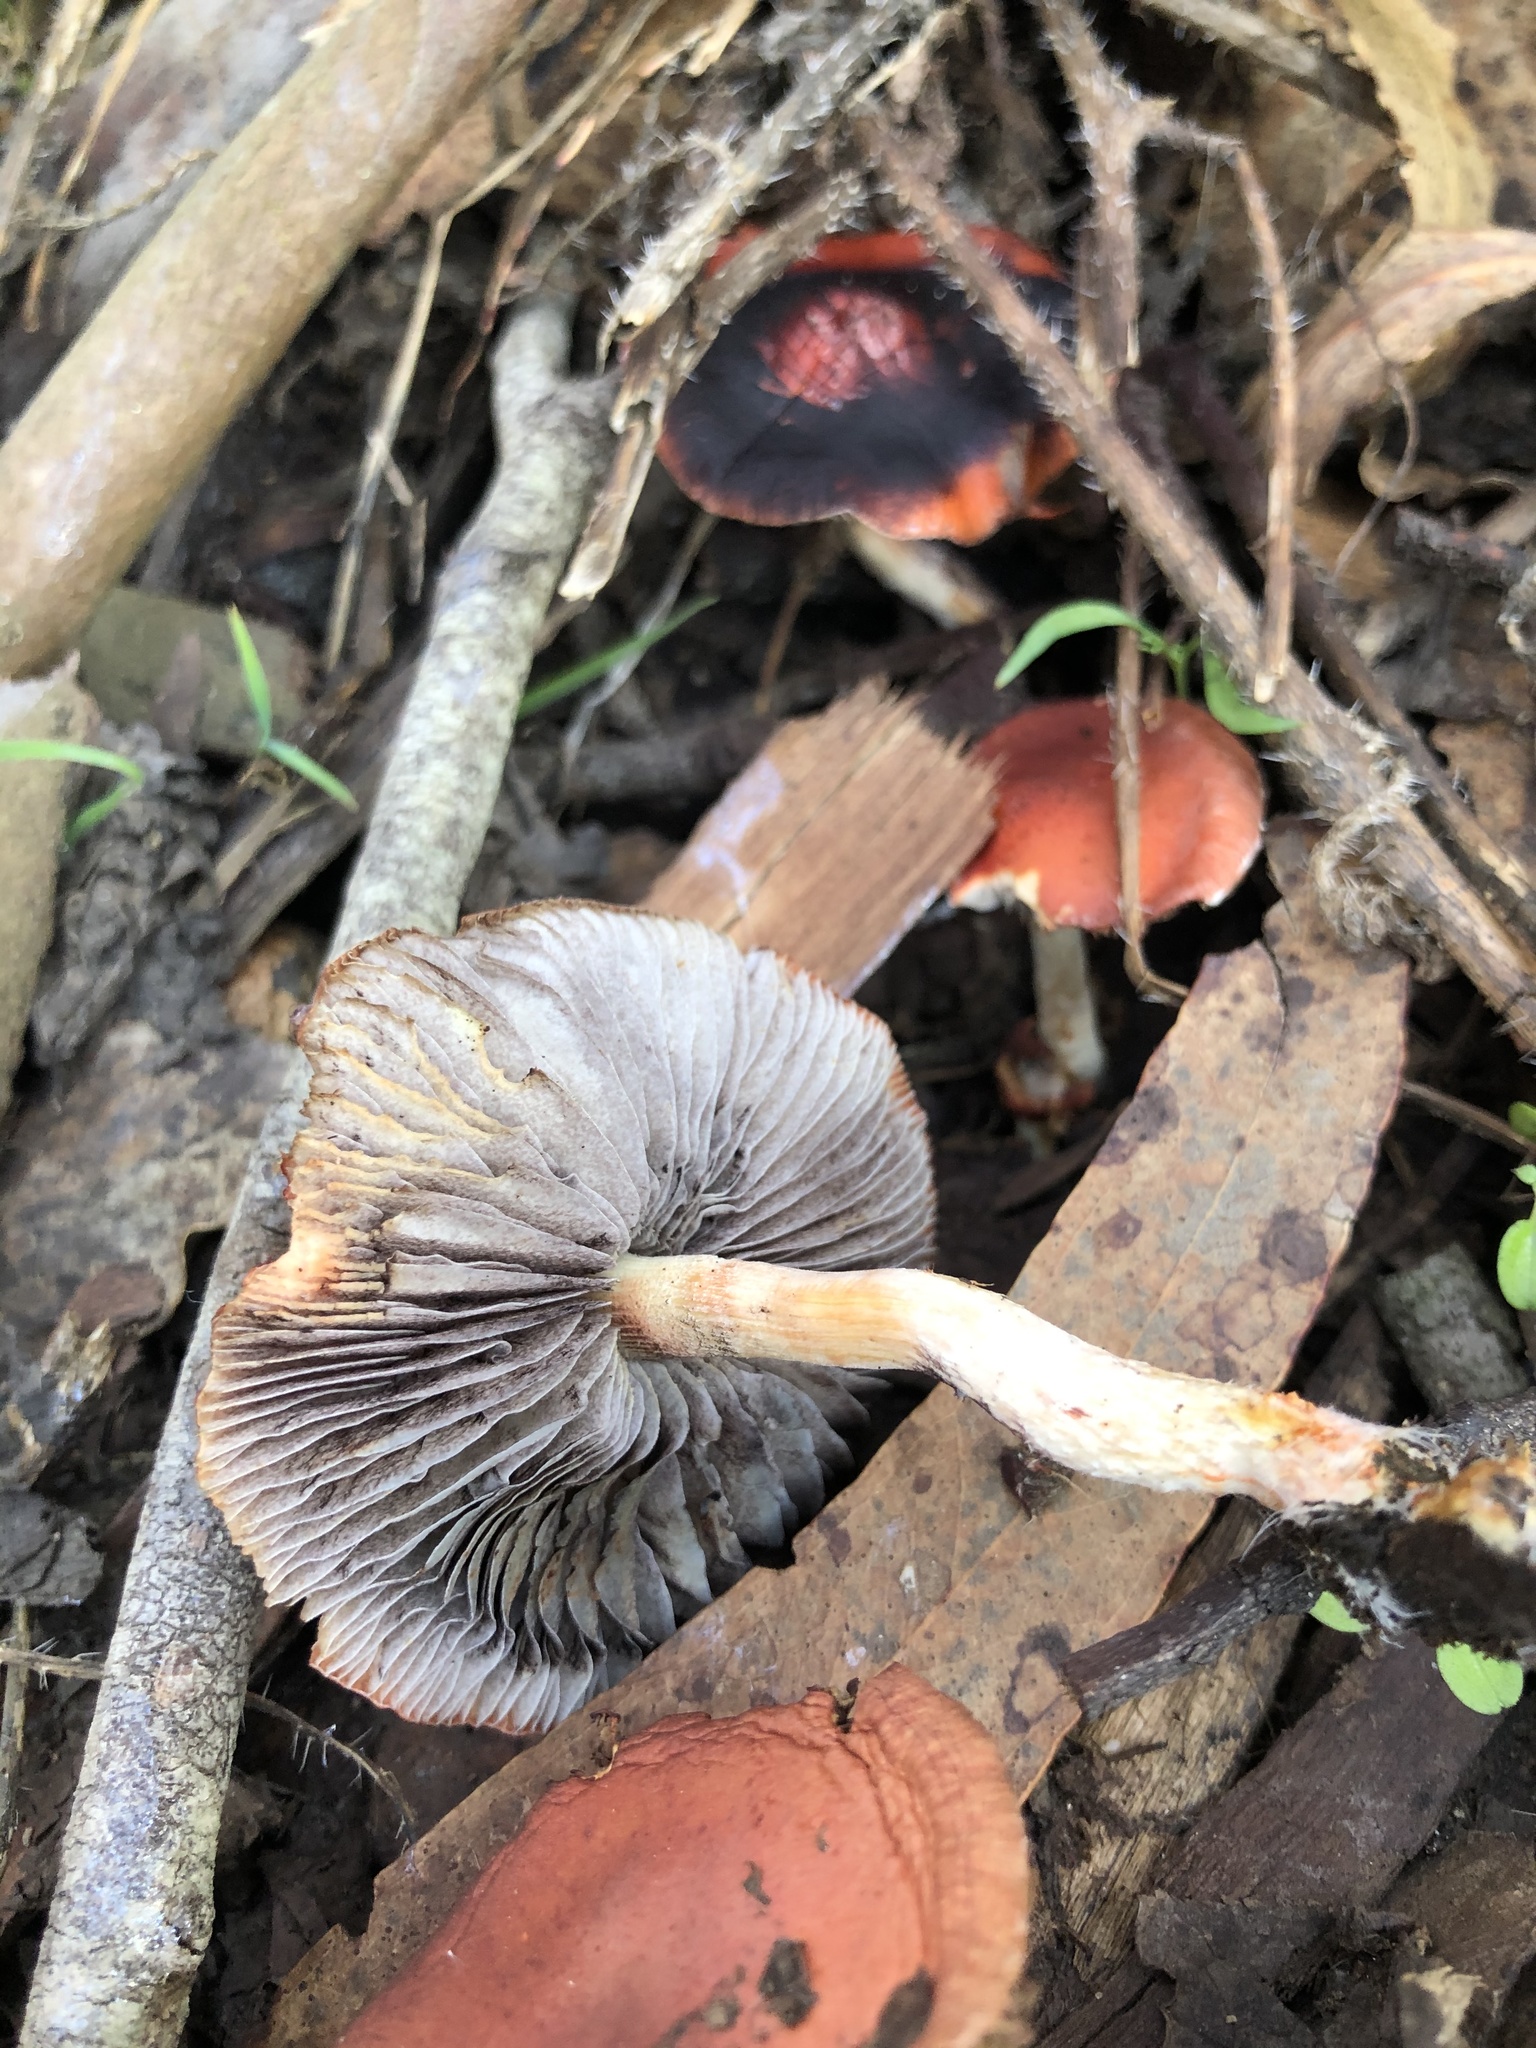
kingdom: Fungi
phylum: Basidiomycota
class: Agaricomycetes
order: Agaricales
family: Strophariaceae
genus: Leratiomyces
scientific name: Leratiomyces ceres
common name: Redlead roundhead
